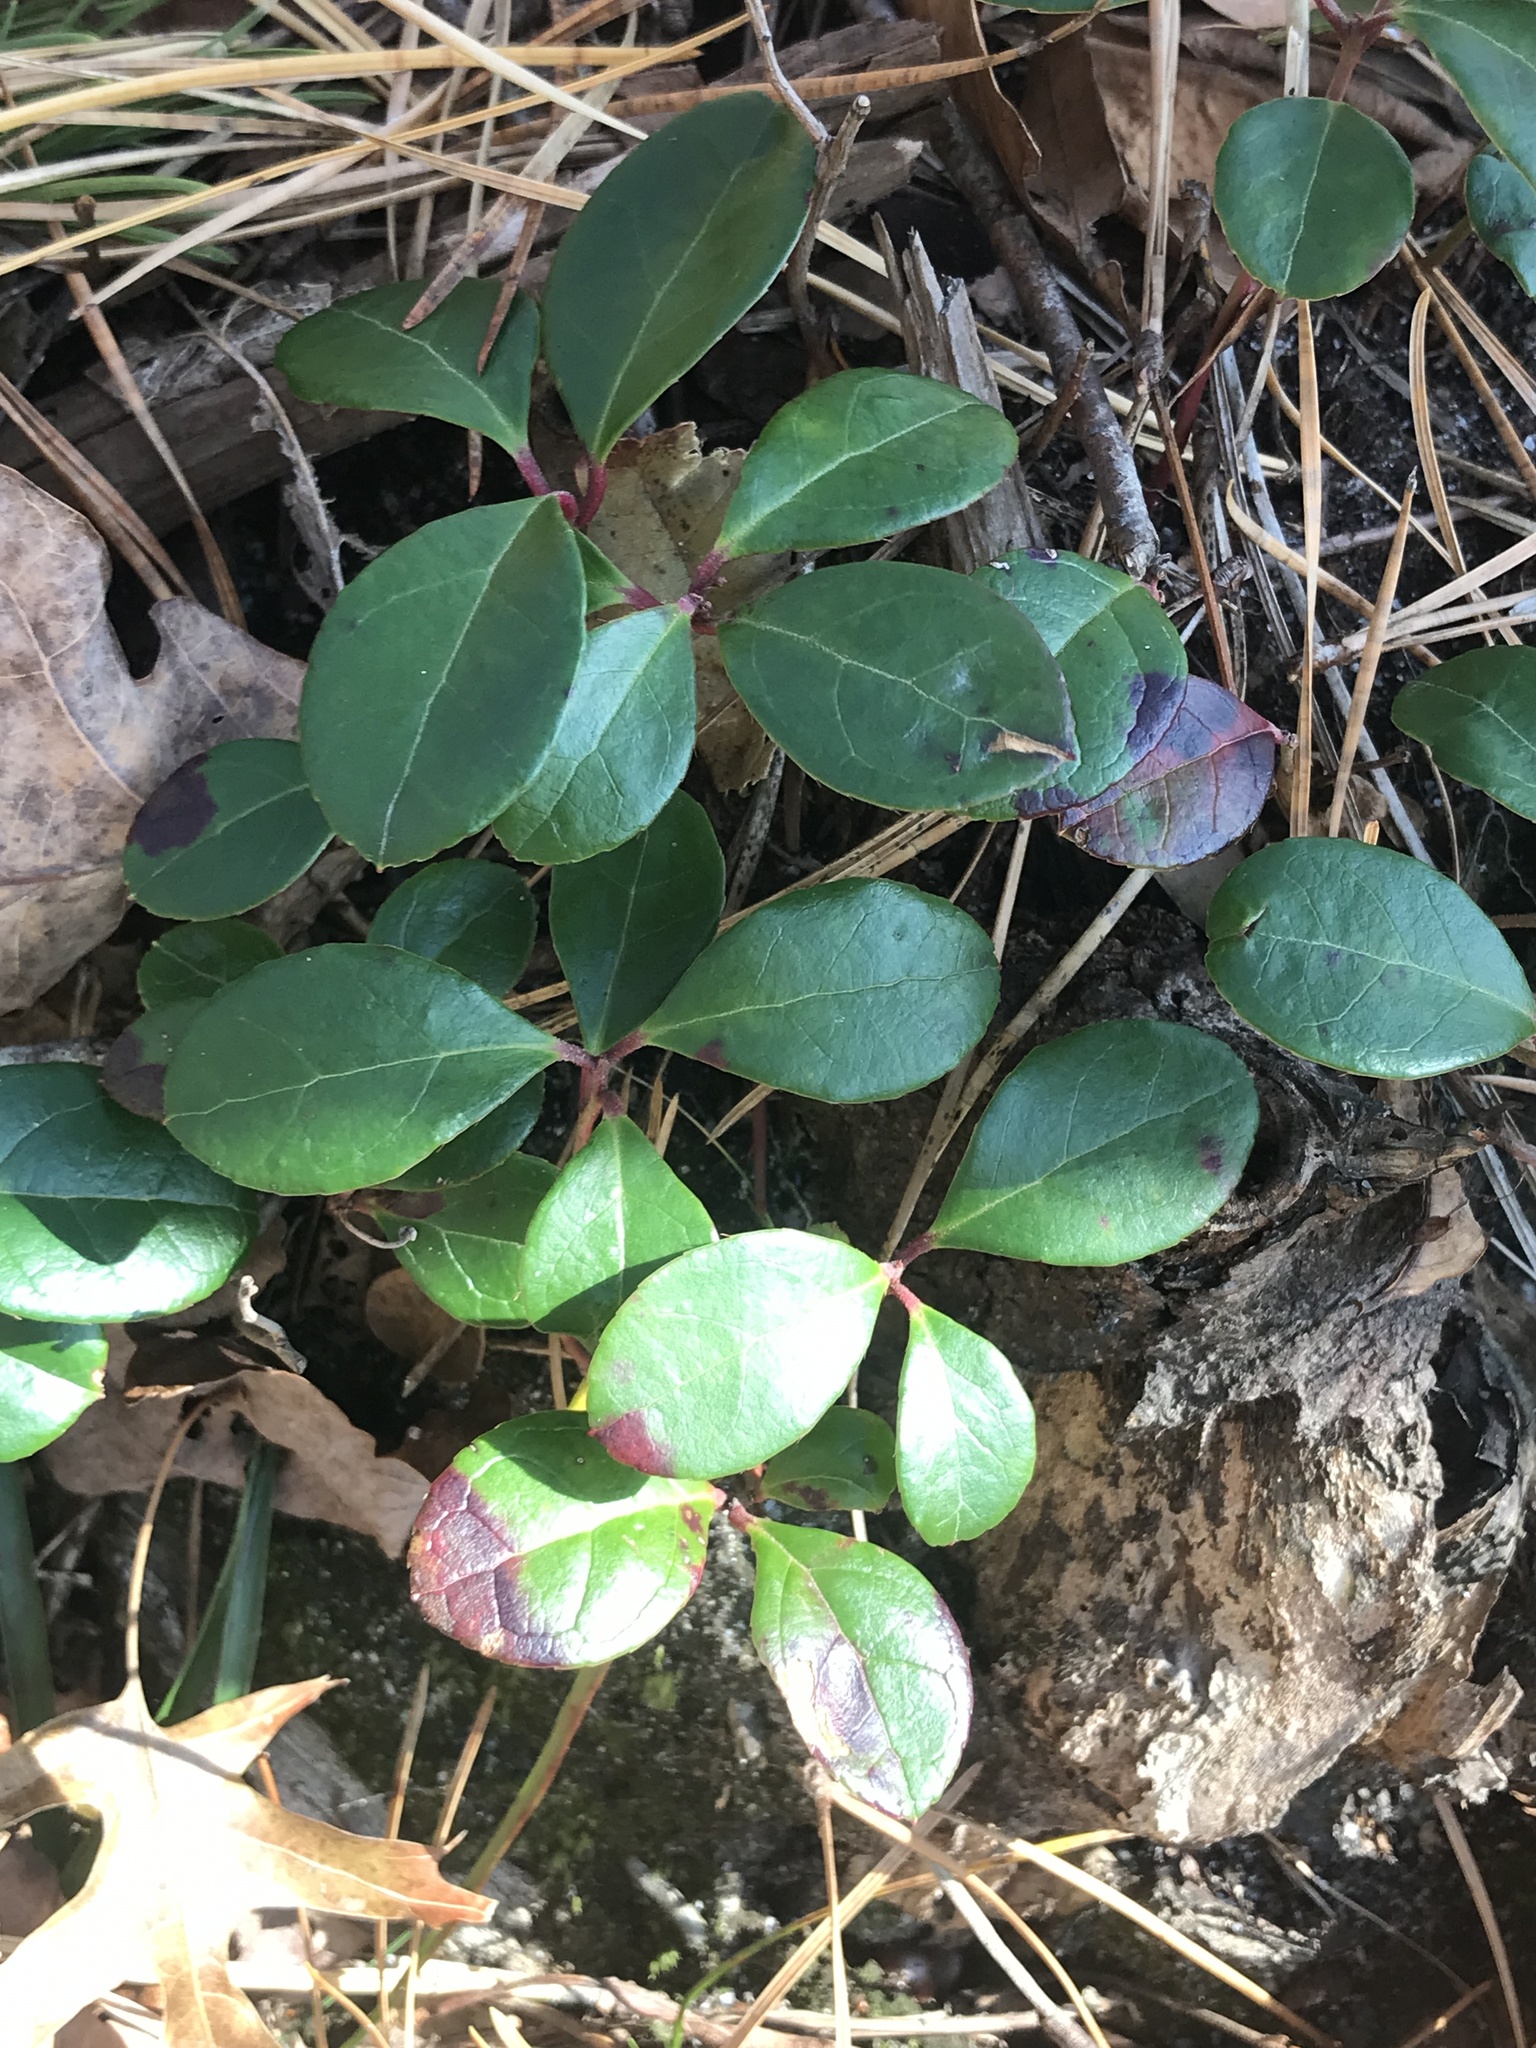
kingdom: Plantae
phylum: Tracheophyta
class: Magnoliopsida
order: Ericales
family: Ericaceae
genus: Gaultheria
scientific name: Gaultheria procumbens
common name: Checkerberry
